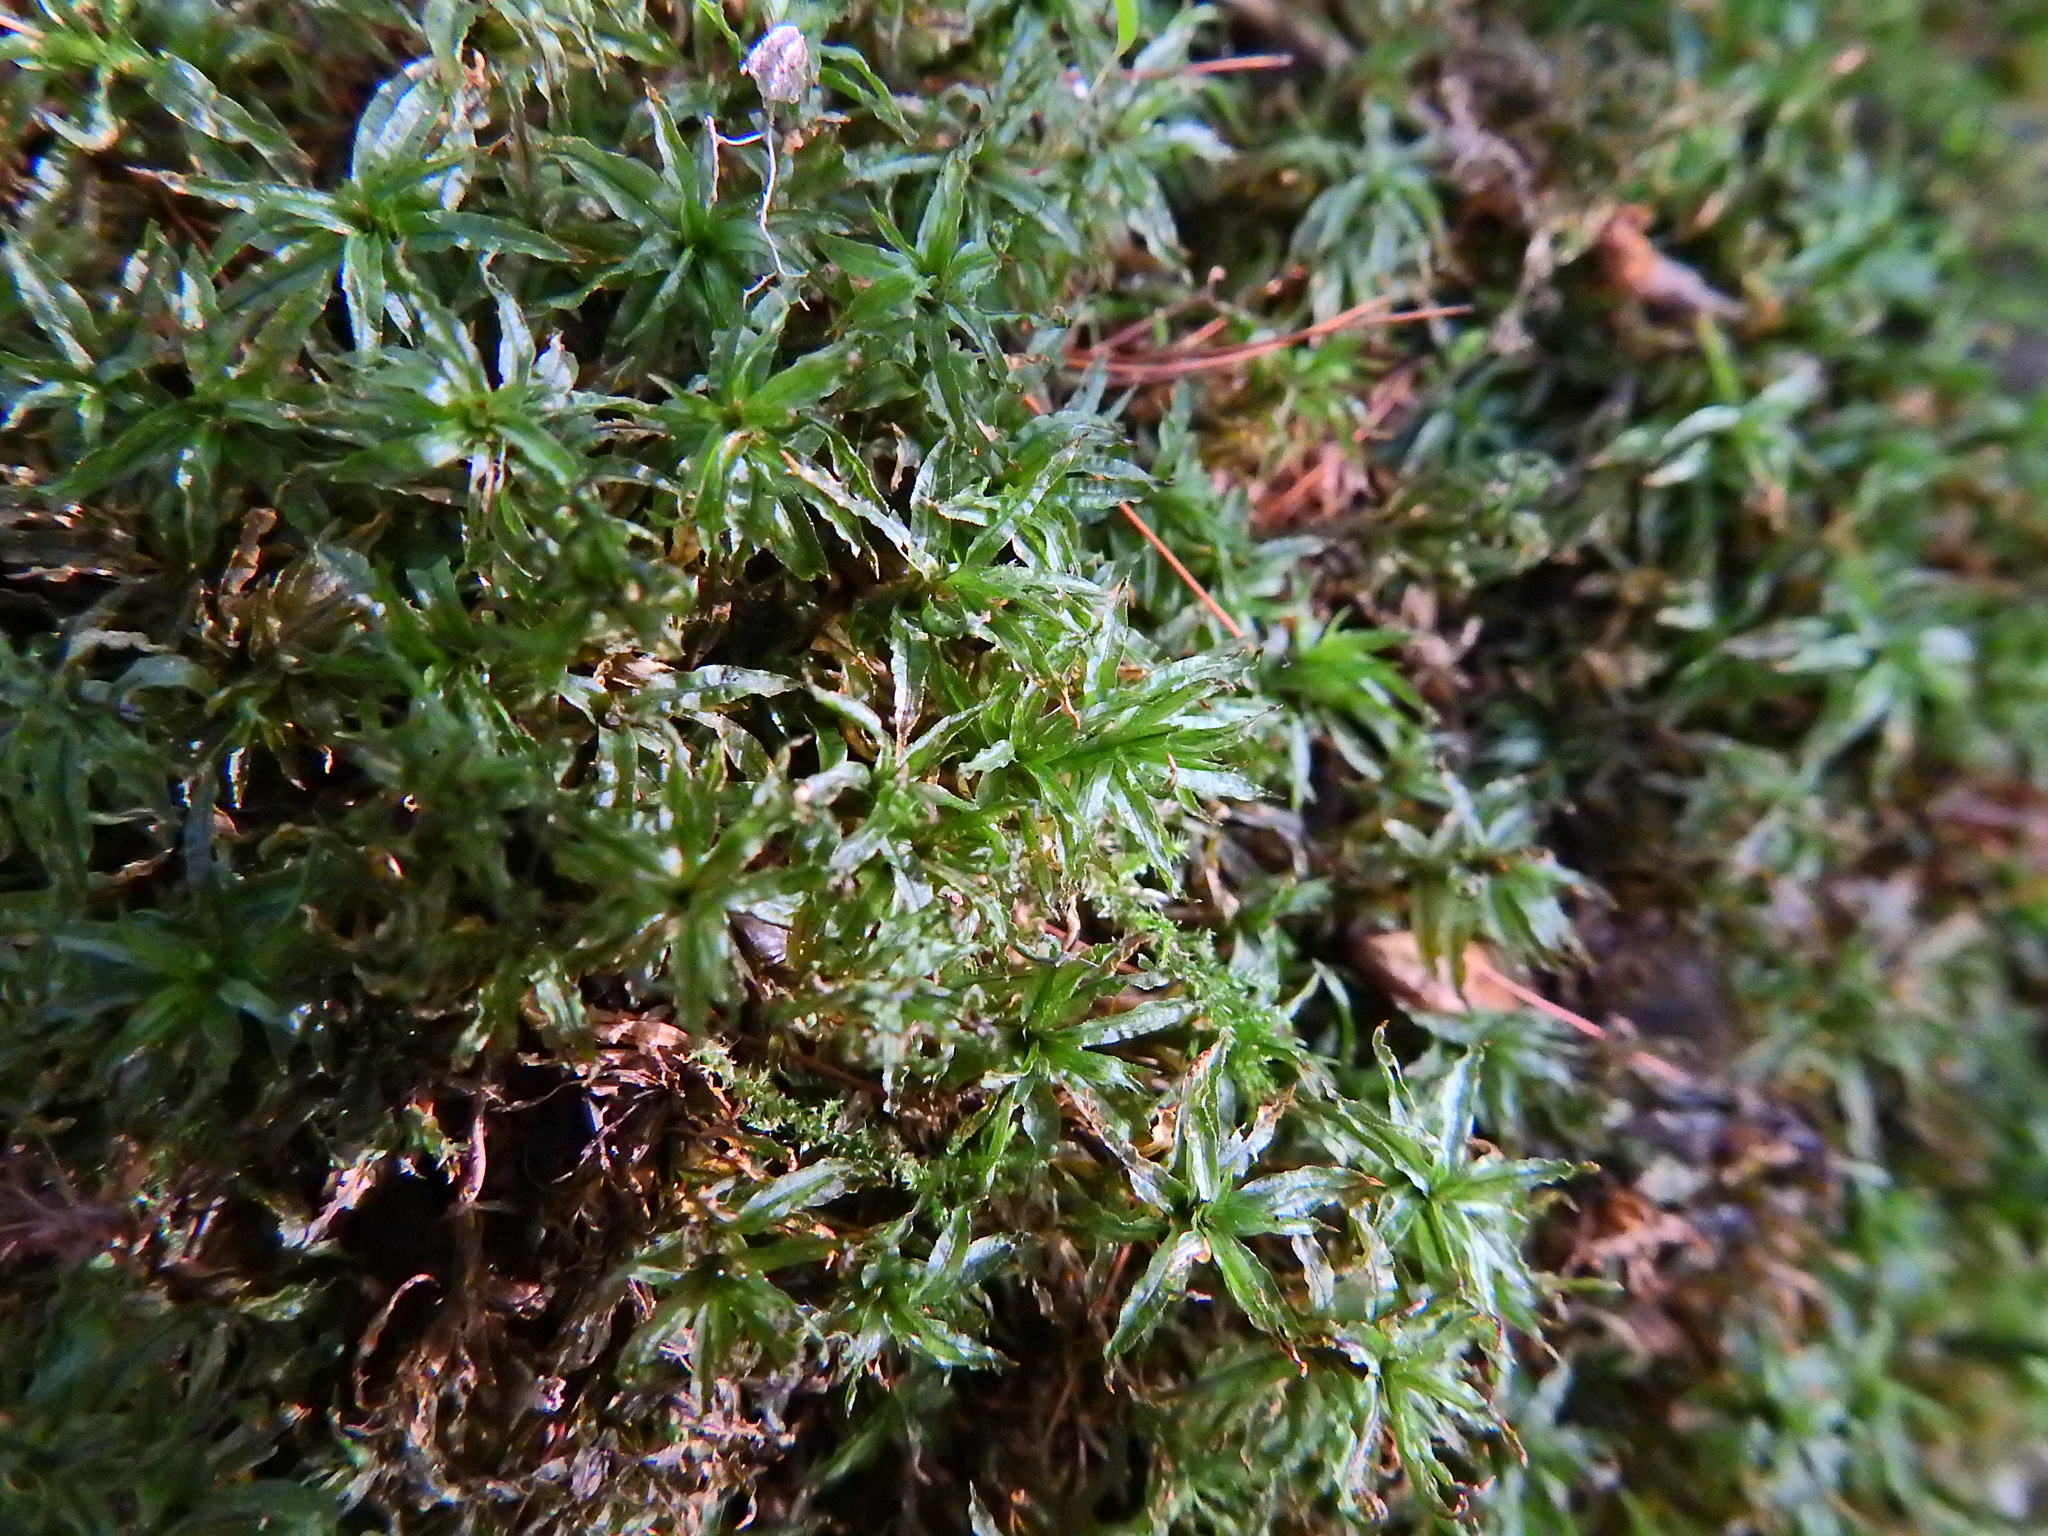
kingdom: Plantae
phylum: Bryophyta
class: Polytrichopsida
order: Polytrichales
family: Polytrichaceae
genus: Atrichum
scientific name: Atrichum undulatum
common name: Common smoothcap
